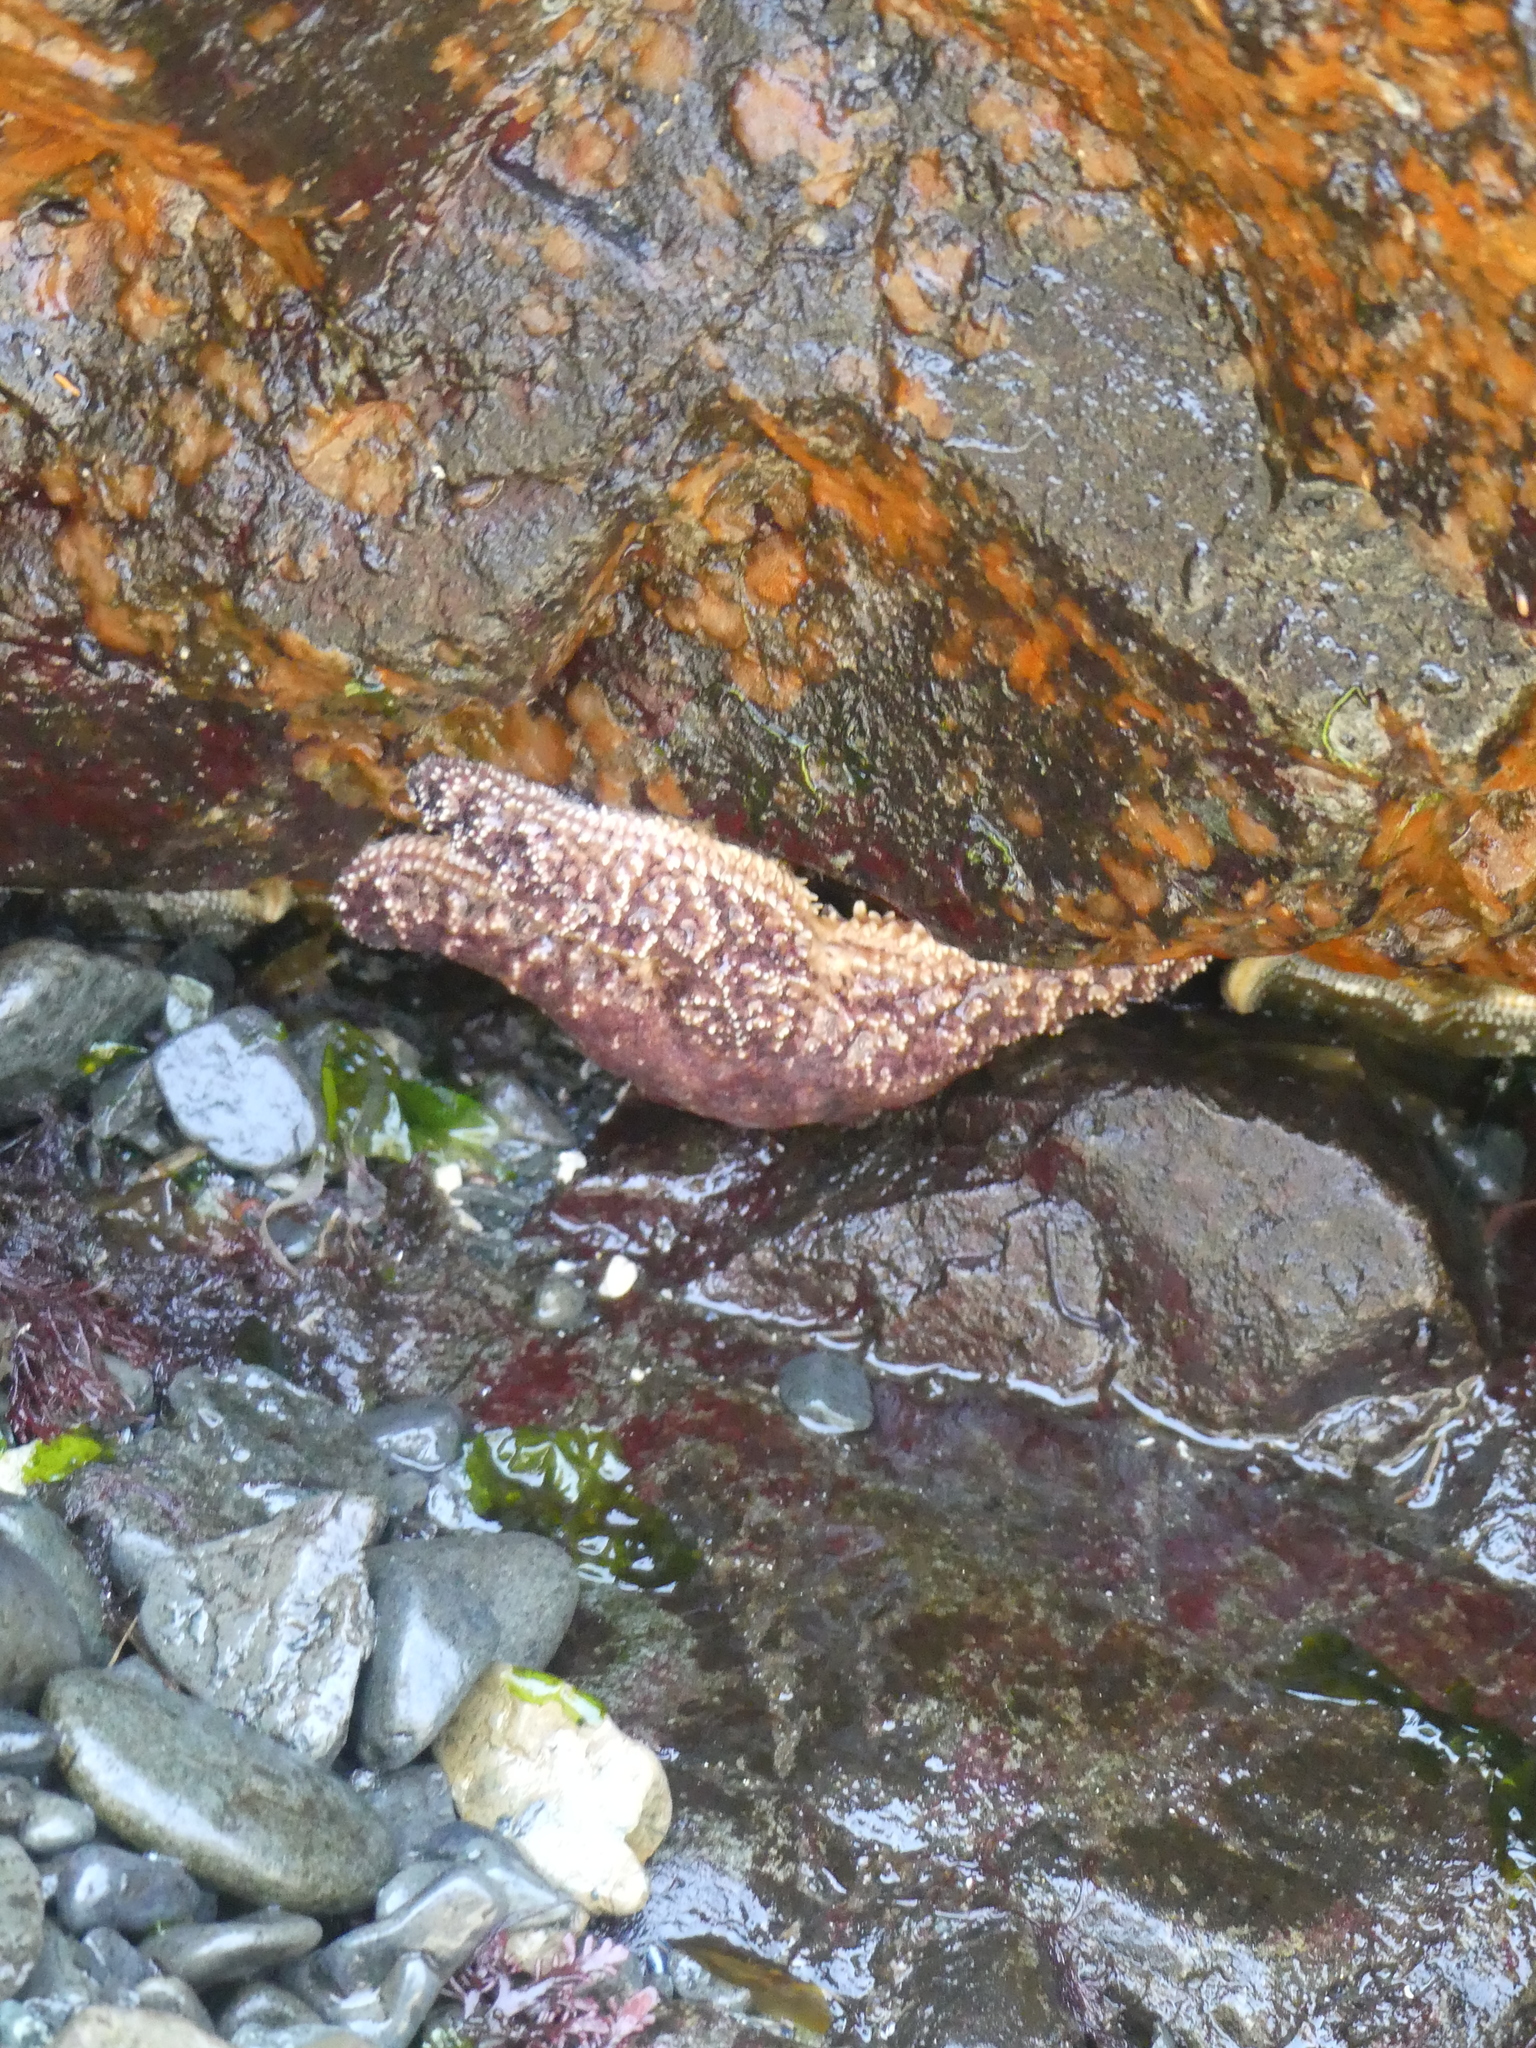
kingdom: Animalia
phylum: Echinodermata
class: Asteroidea
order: Forcipulatida
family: Asteriidae
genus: Pisaster
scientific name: Pisaster ochraceus
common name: Ochre stars
